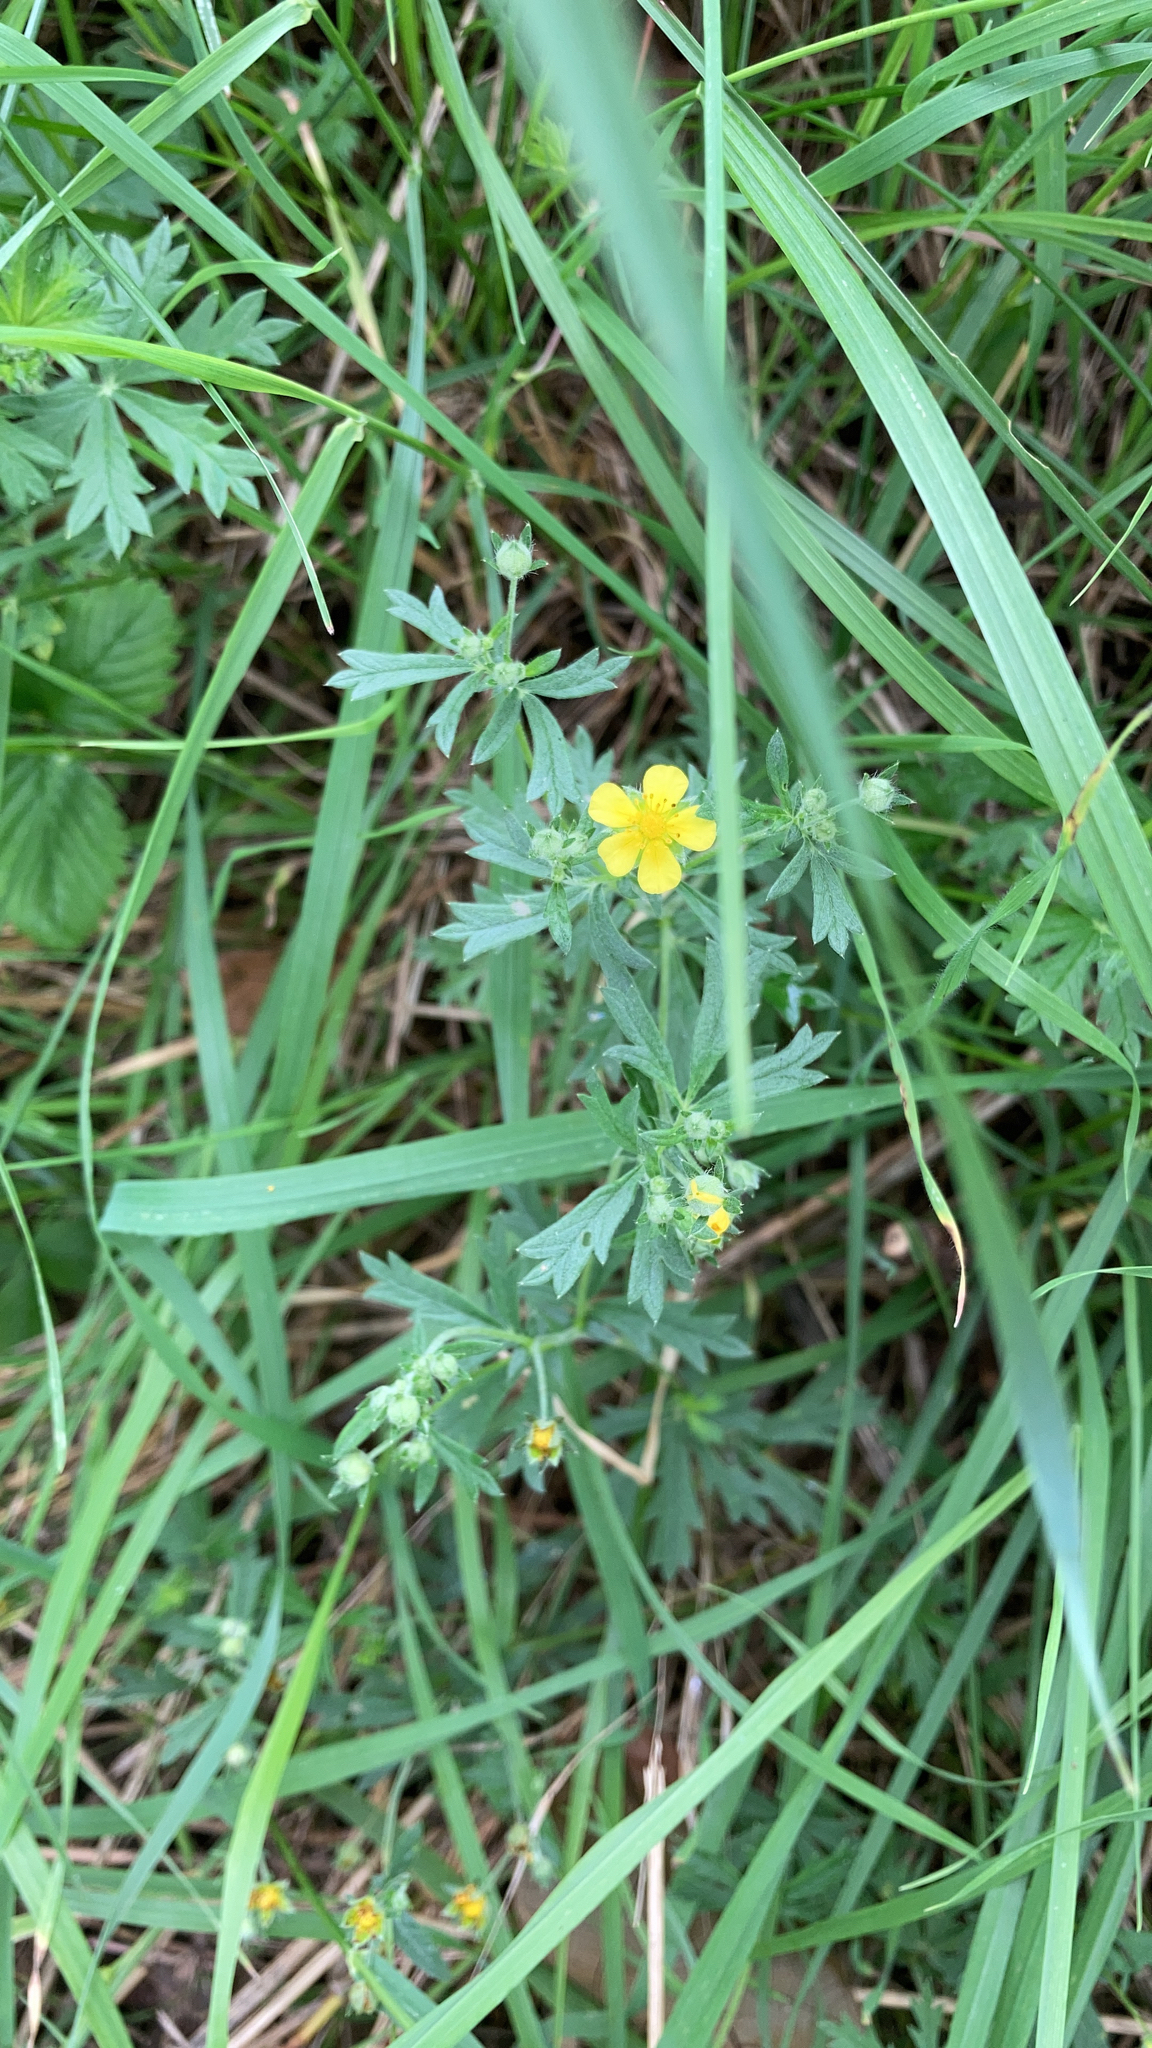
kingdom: Plantae
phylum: Tracheophyta
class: Magnoliopsida
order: Rosales
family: Rosaceae
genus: Potentilla
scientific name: Potentilla argentea
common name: Hoary cinquefoil
